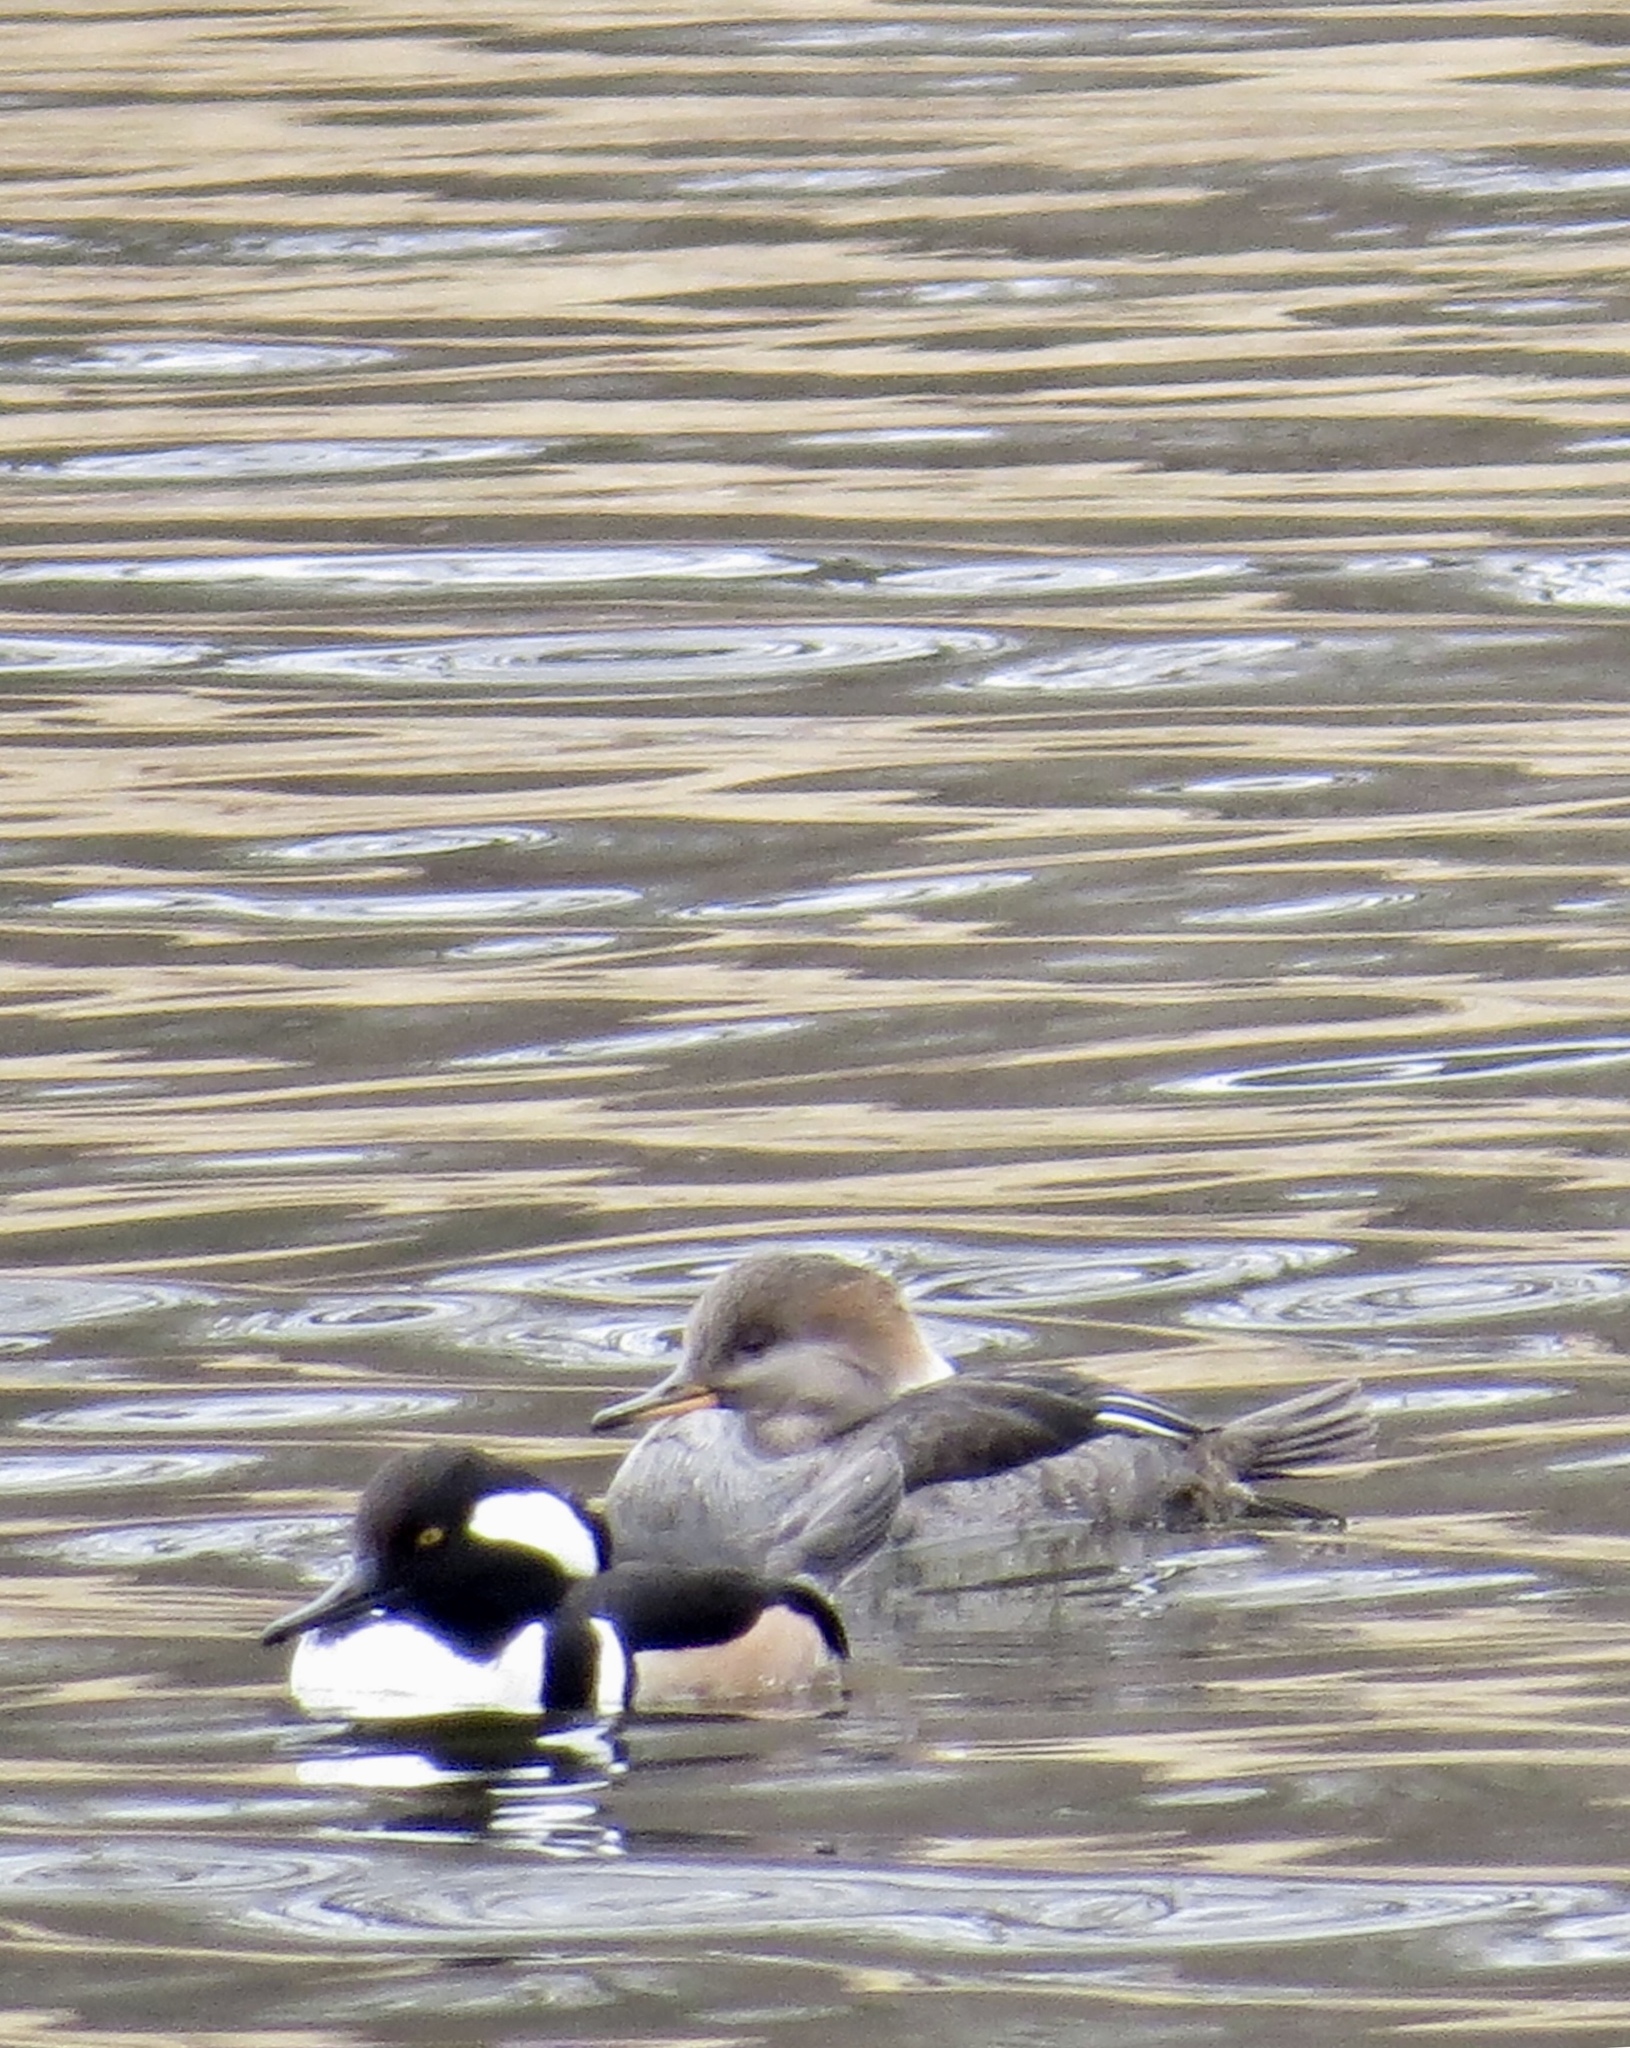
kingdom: Animalia
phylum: Chordata
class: Aves
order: Anseriformes
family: Anatidae
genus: Lophodytes
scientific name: Lophodytes cucullatus
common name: Hooded merganser
